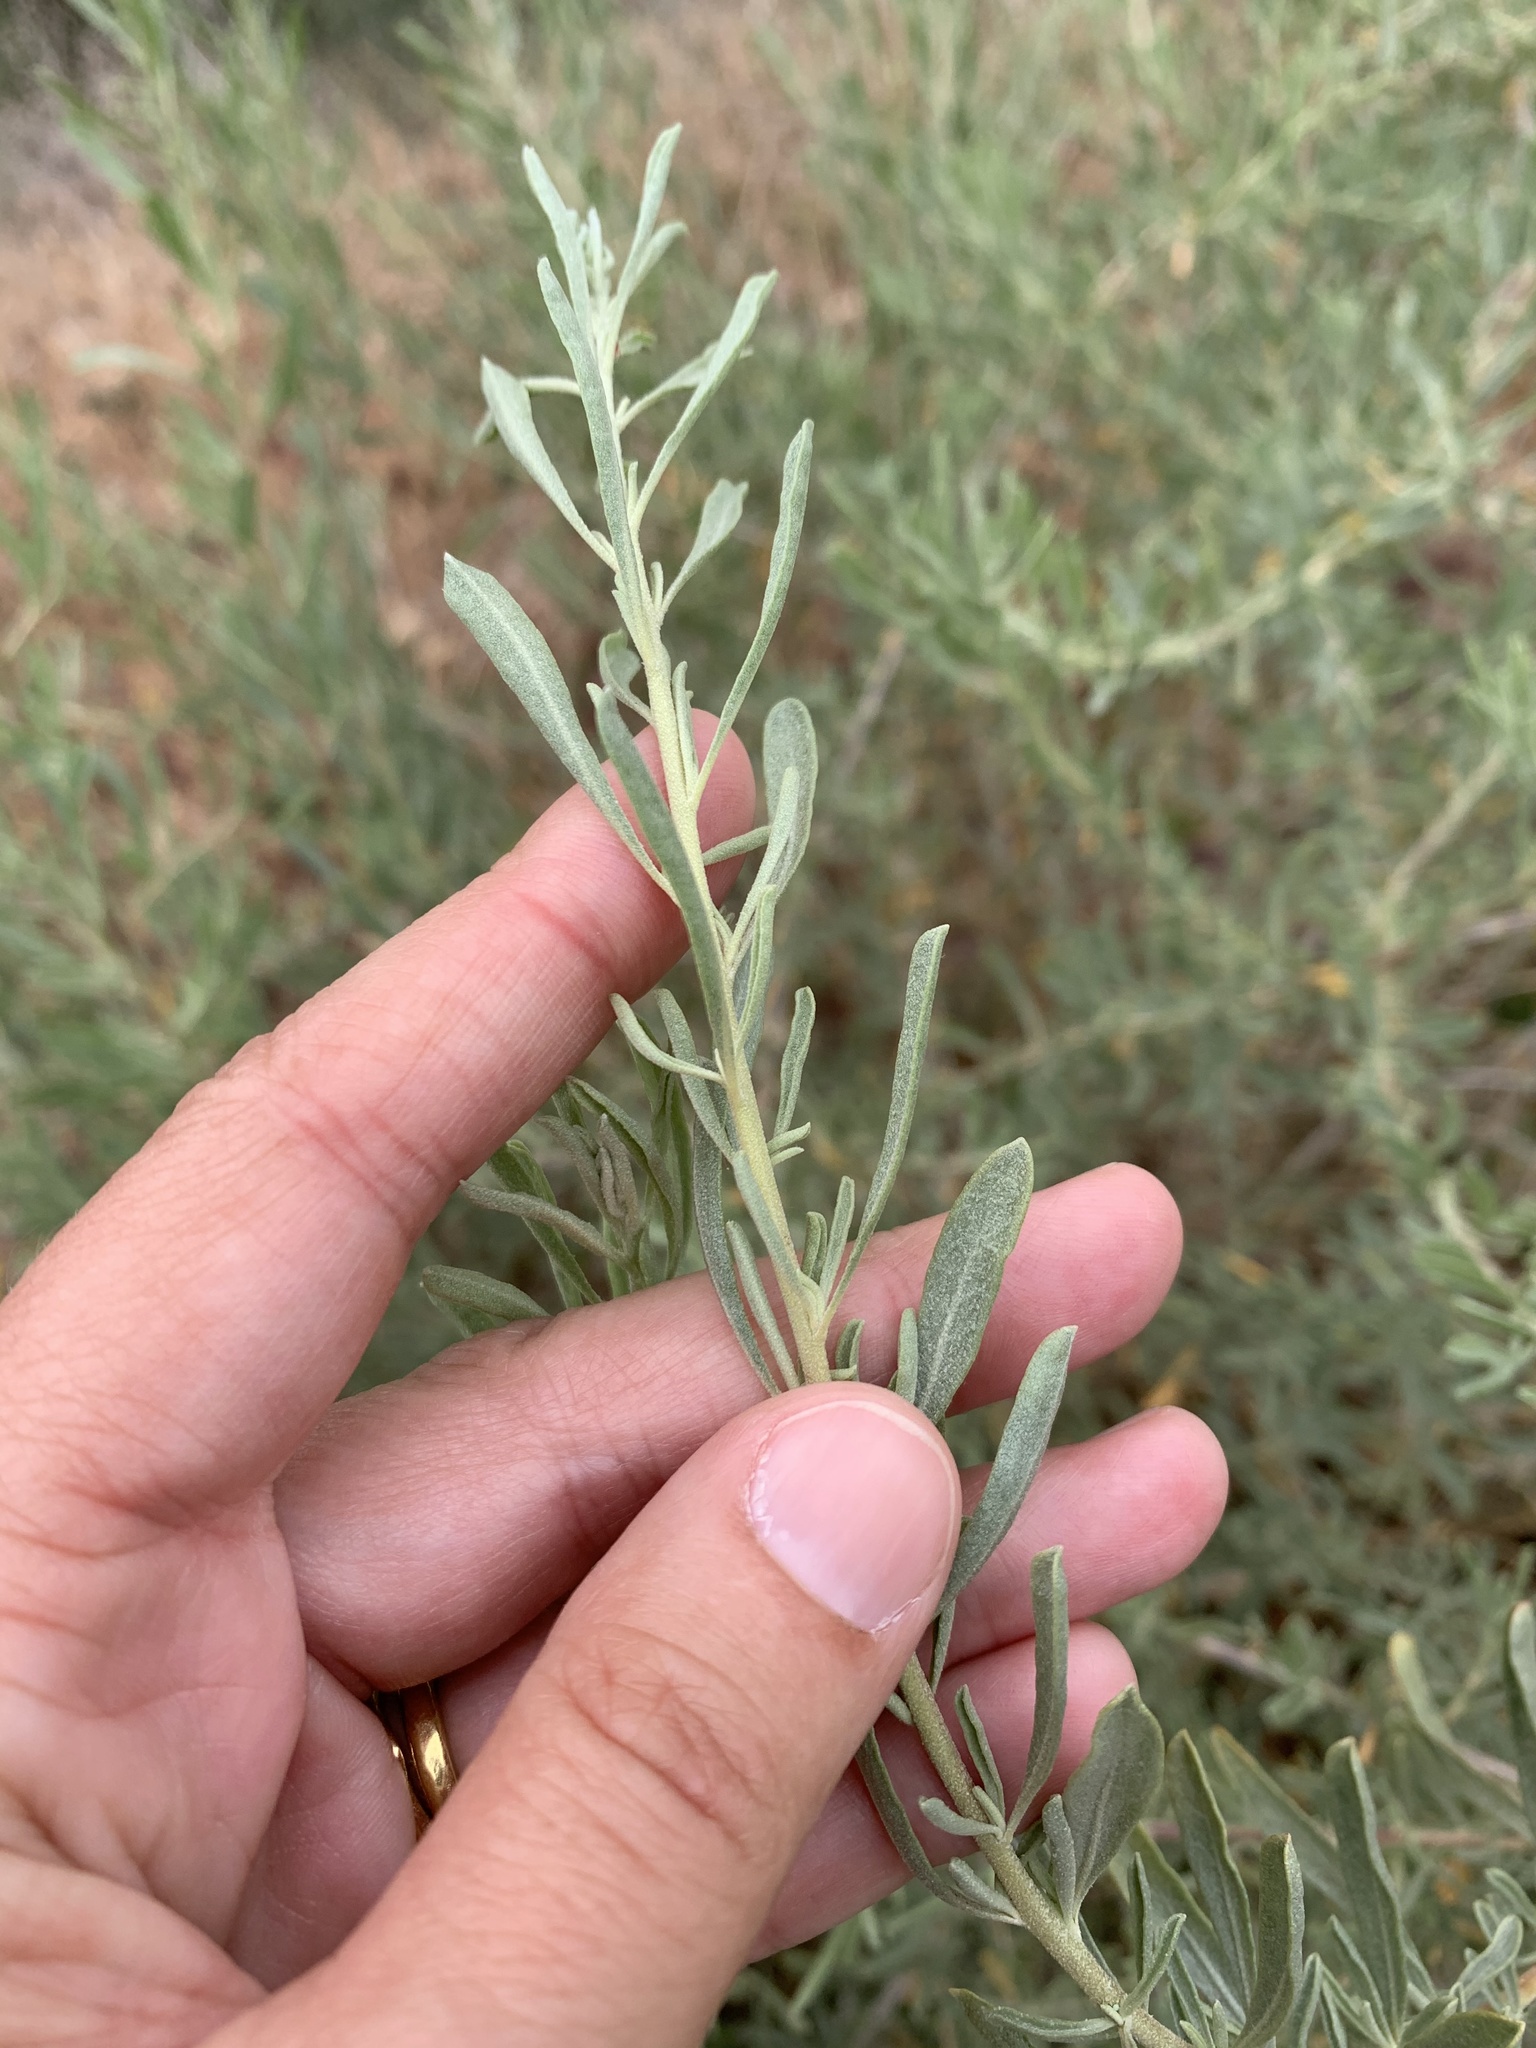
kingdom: Plantae
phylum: Tracheophyta
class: Magnoliopsida
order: Caryophyllales
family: Amaranthaceae
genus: Atriplex
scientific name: Atriplex canescens
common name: Four-wing saltbush
